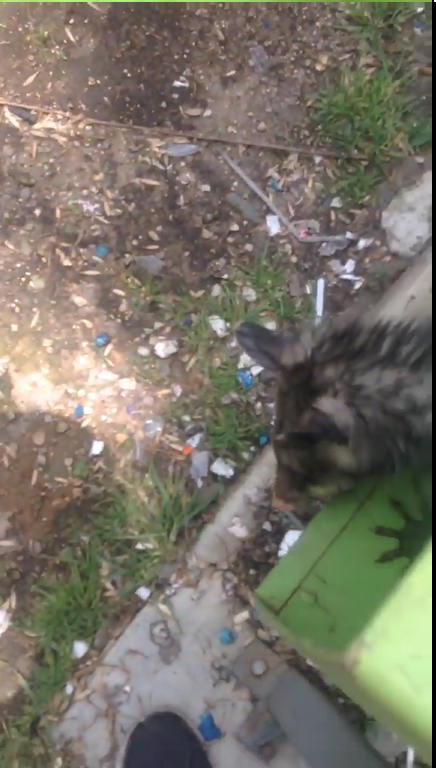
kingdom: Animalia
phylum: Chordata
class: Mammalia
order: Didelphimorphia
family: Didelphidae
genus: Didelphis
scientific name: Didelphis virginiana
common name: Virginia opossum
